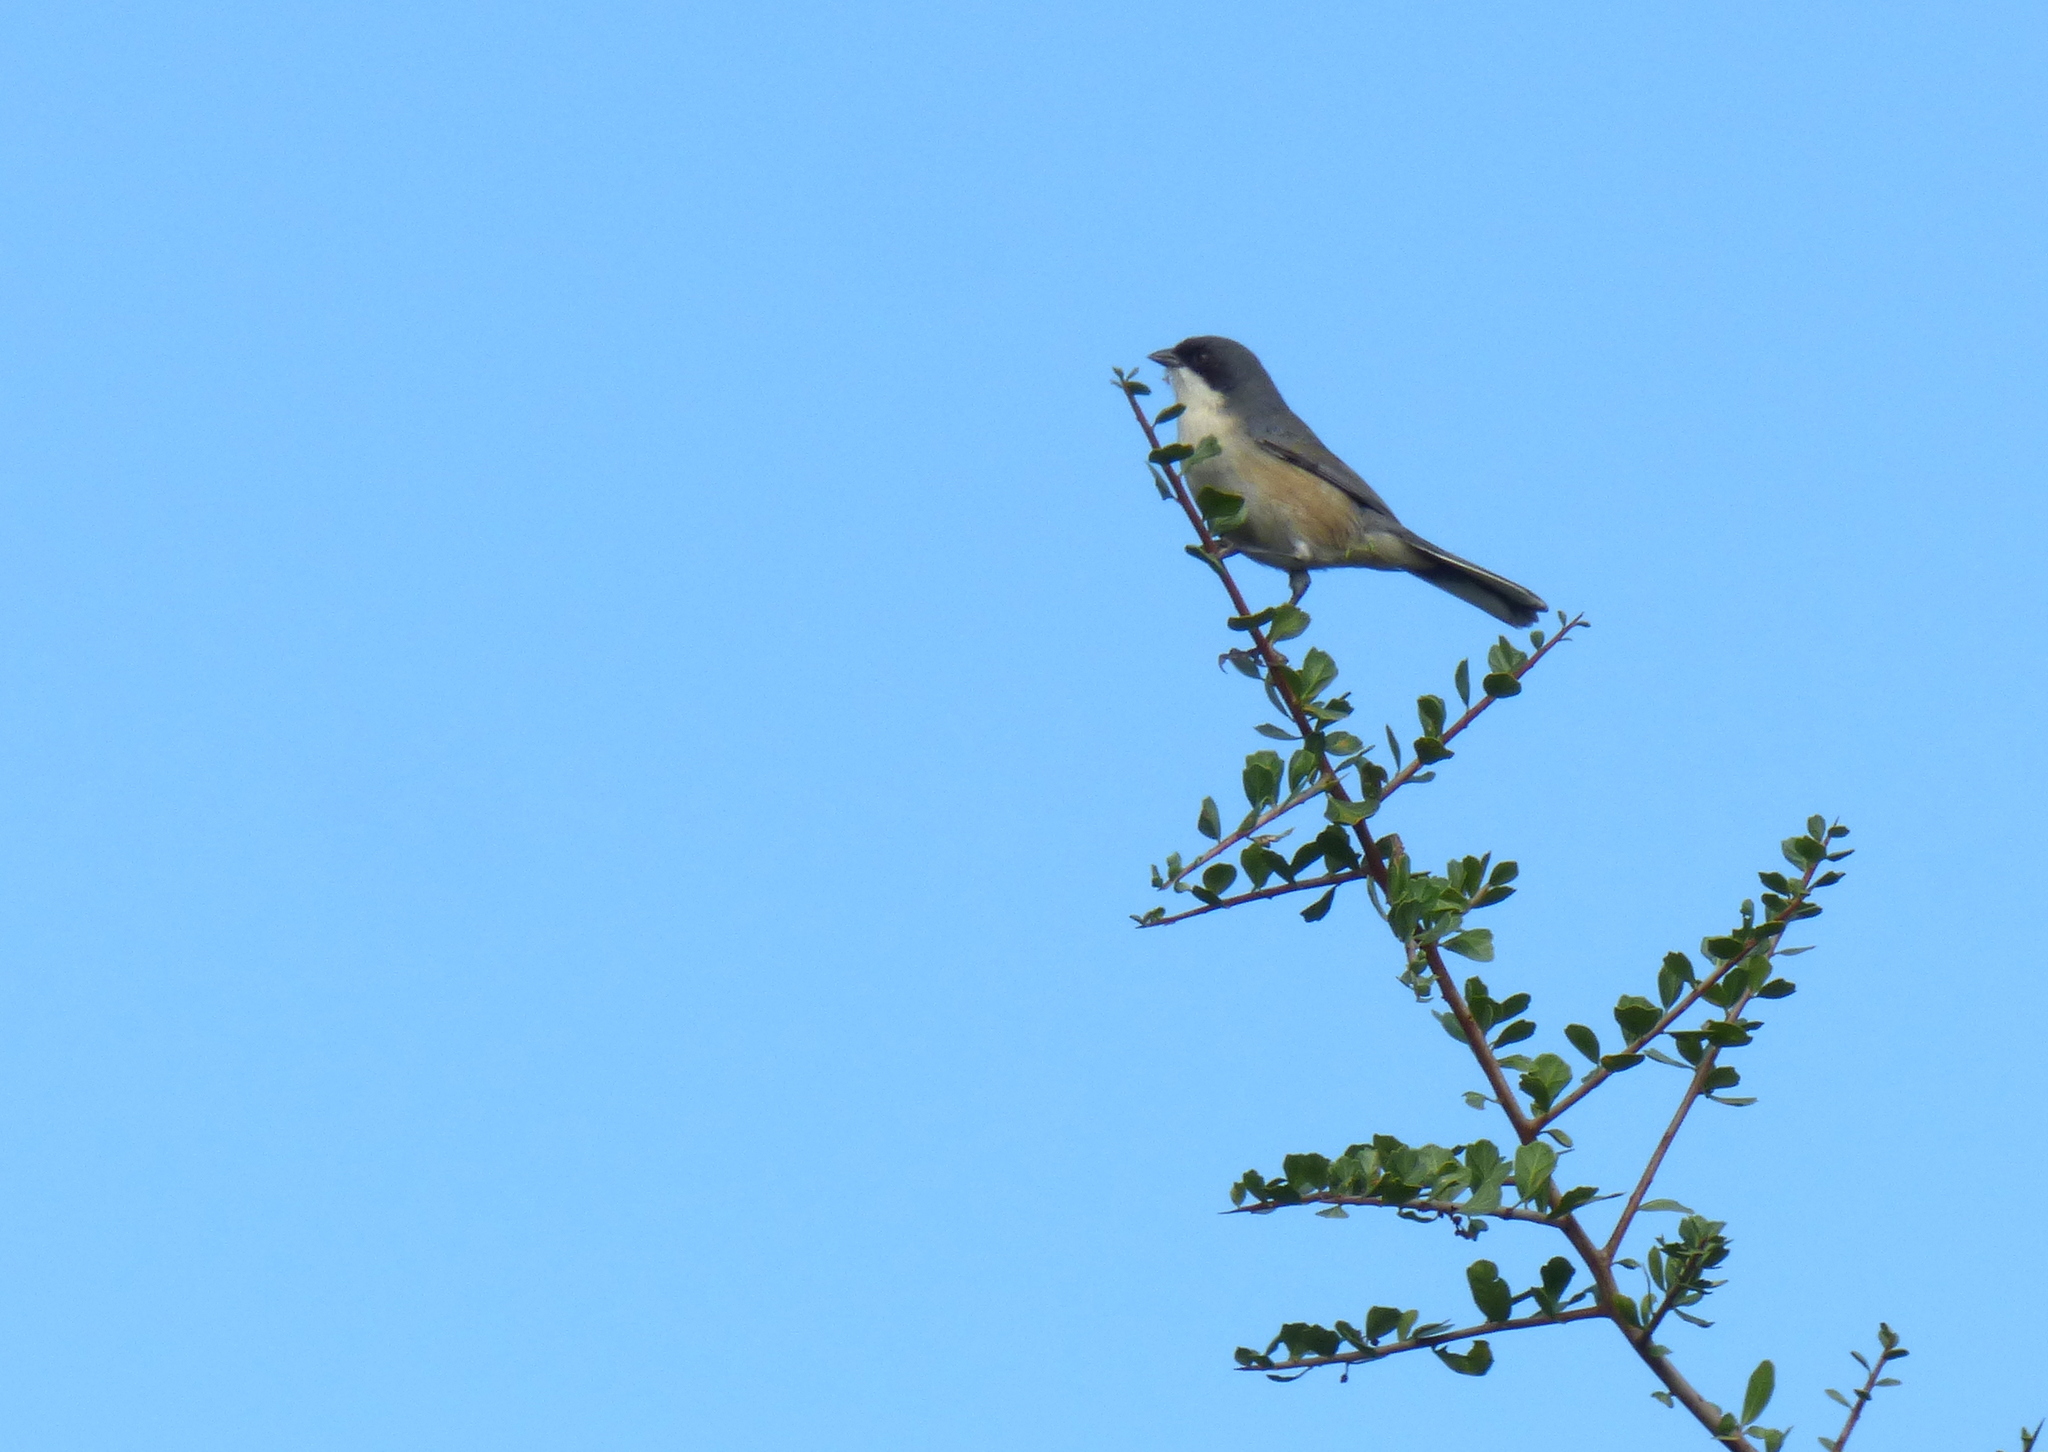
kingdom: Animalia
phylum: Chordata
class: Aves
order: Passeriformes
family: Thraupidae
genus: Microspingus
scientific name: Microspingus melanoleucus
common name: Black-capped warbling-finch
